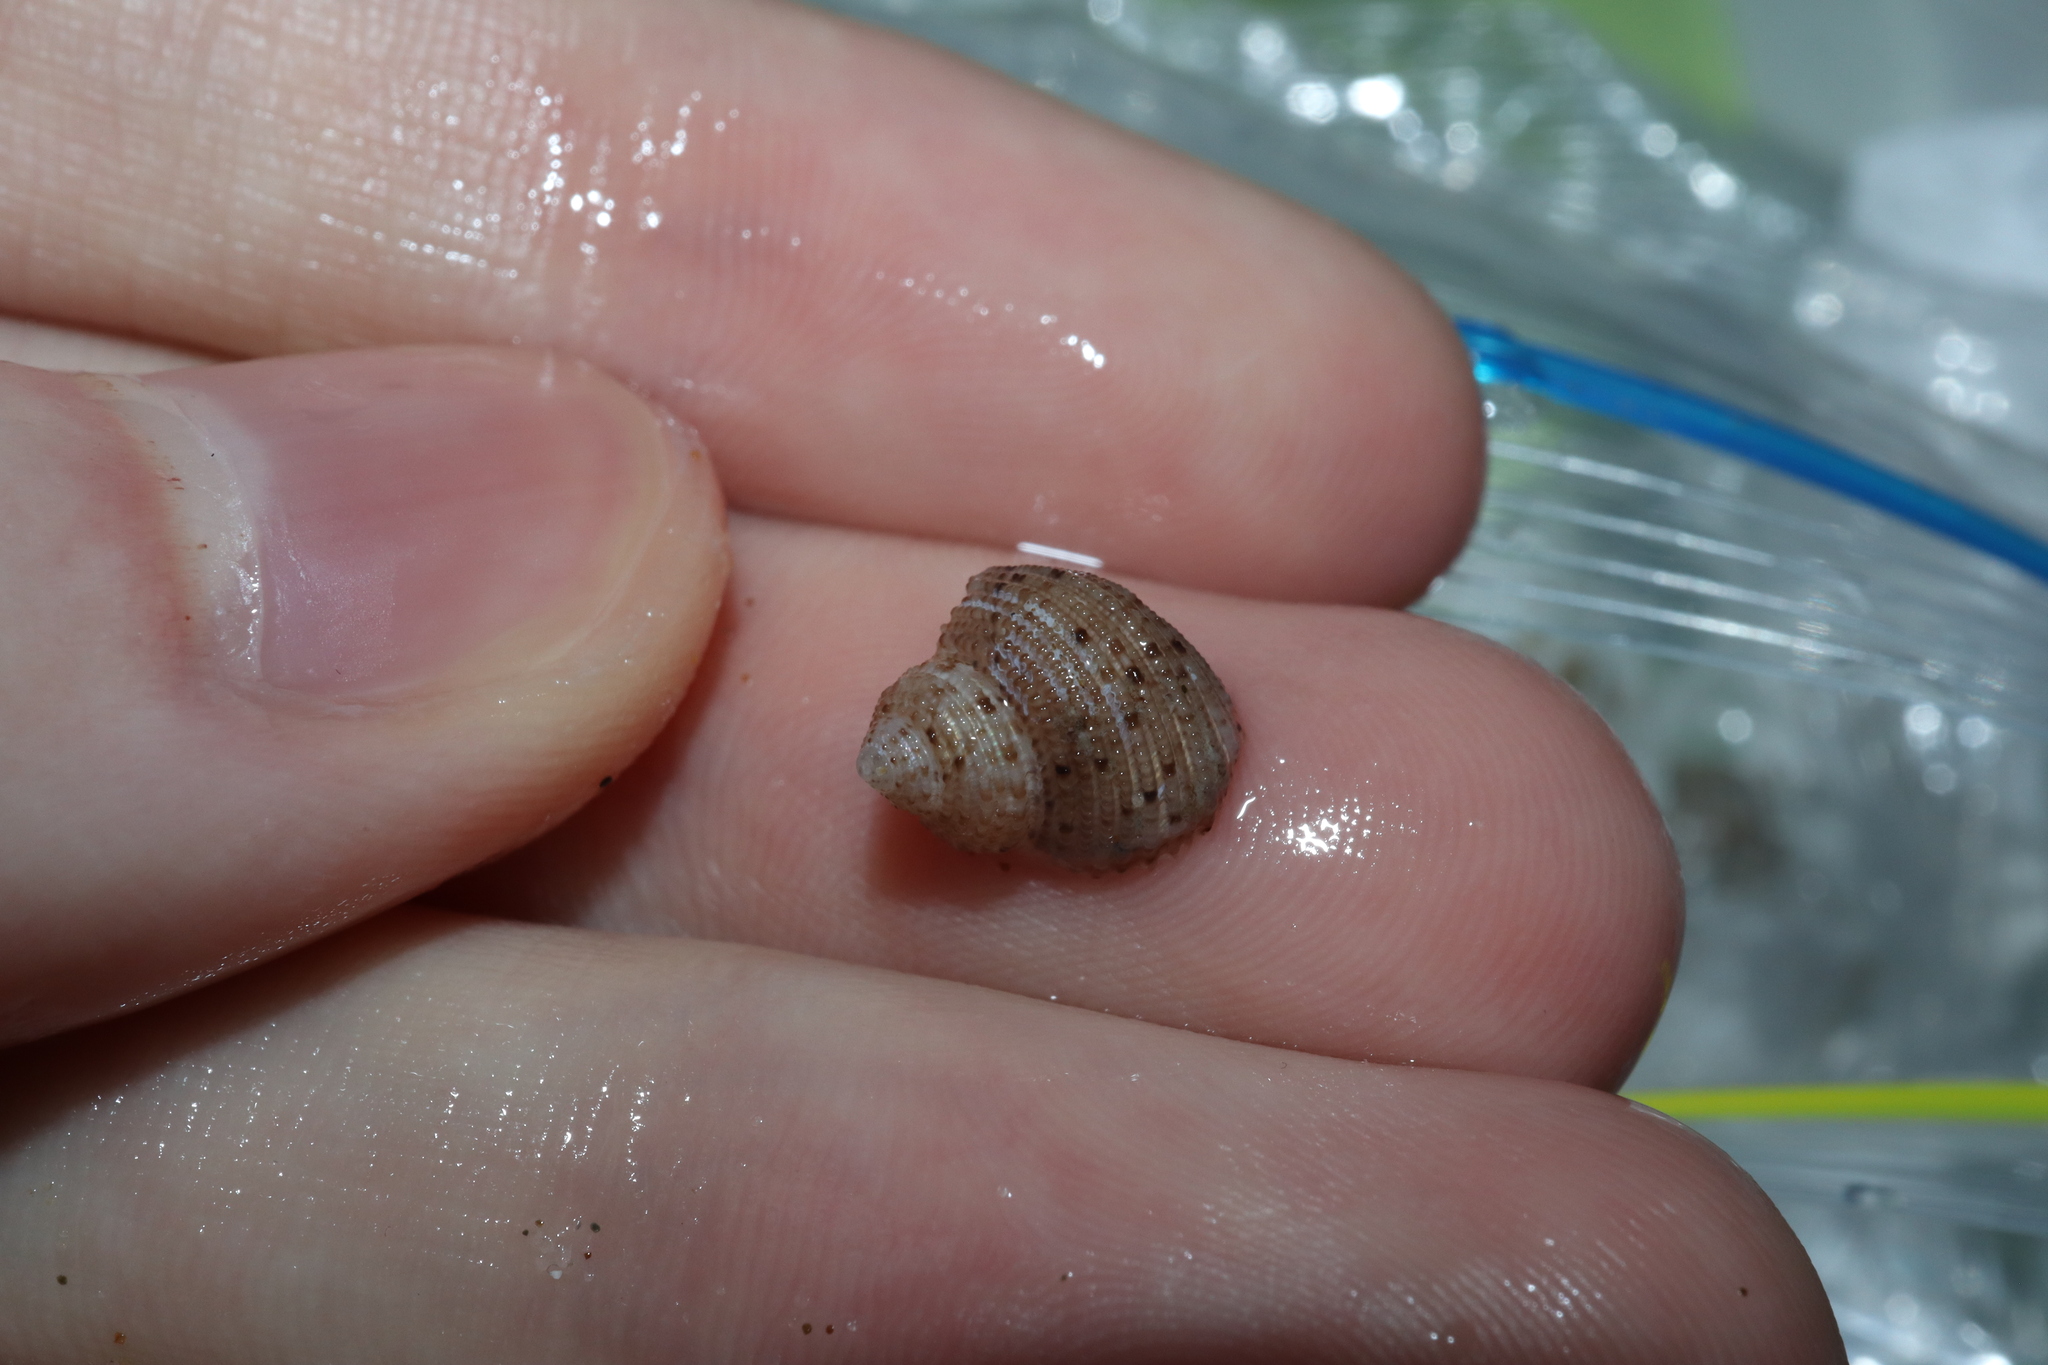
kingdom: Animalia
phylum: Mollusca
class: Gastropoda
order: Seguenziida
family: Chilodontaidae
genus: Herpetopoma
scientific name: Herpetopoma aspersum
